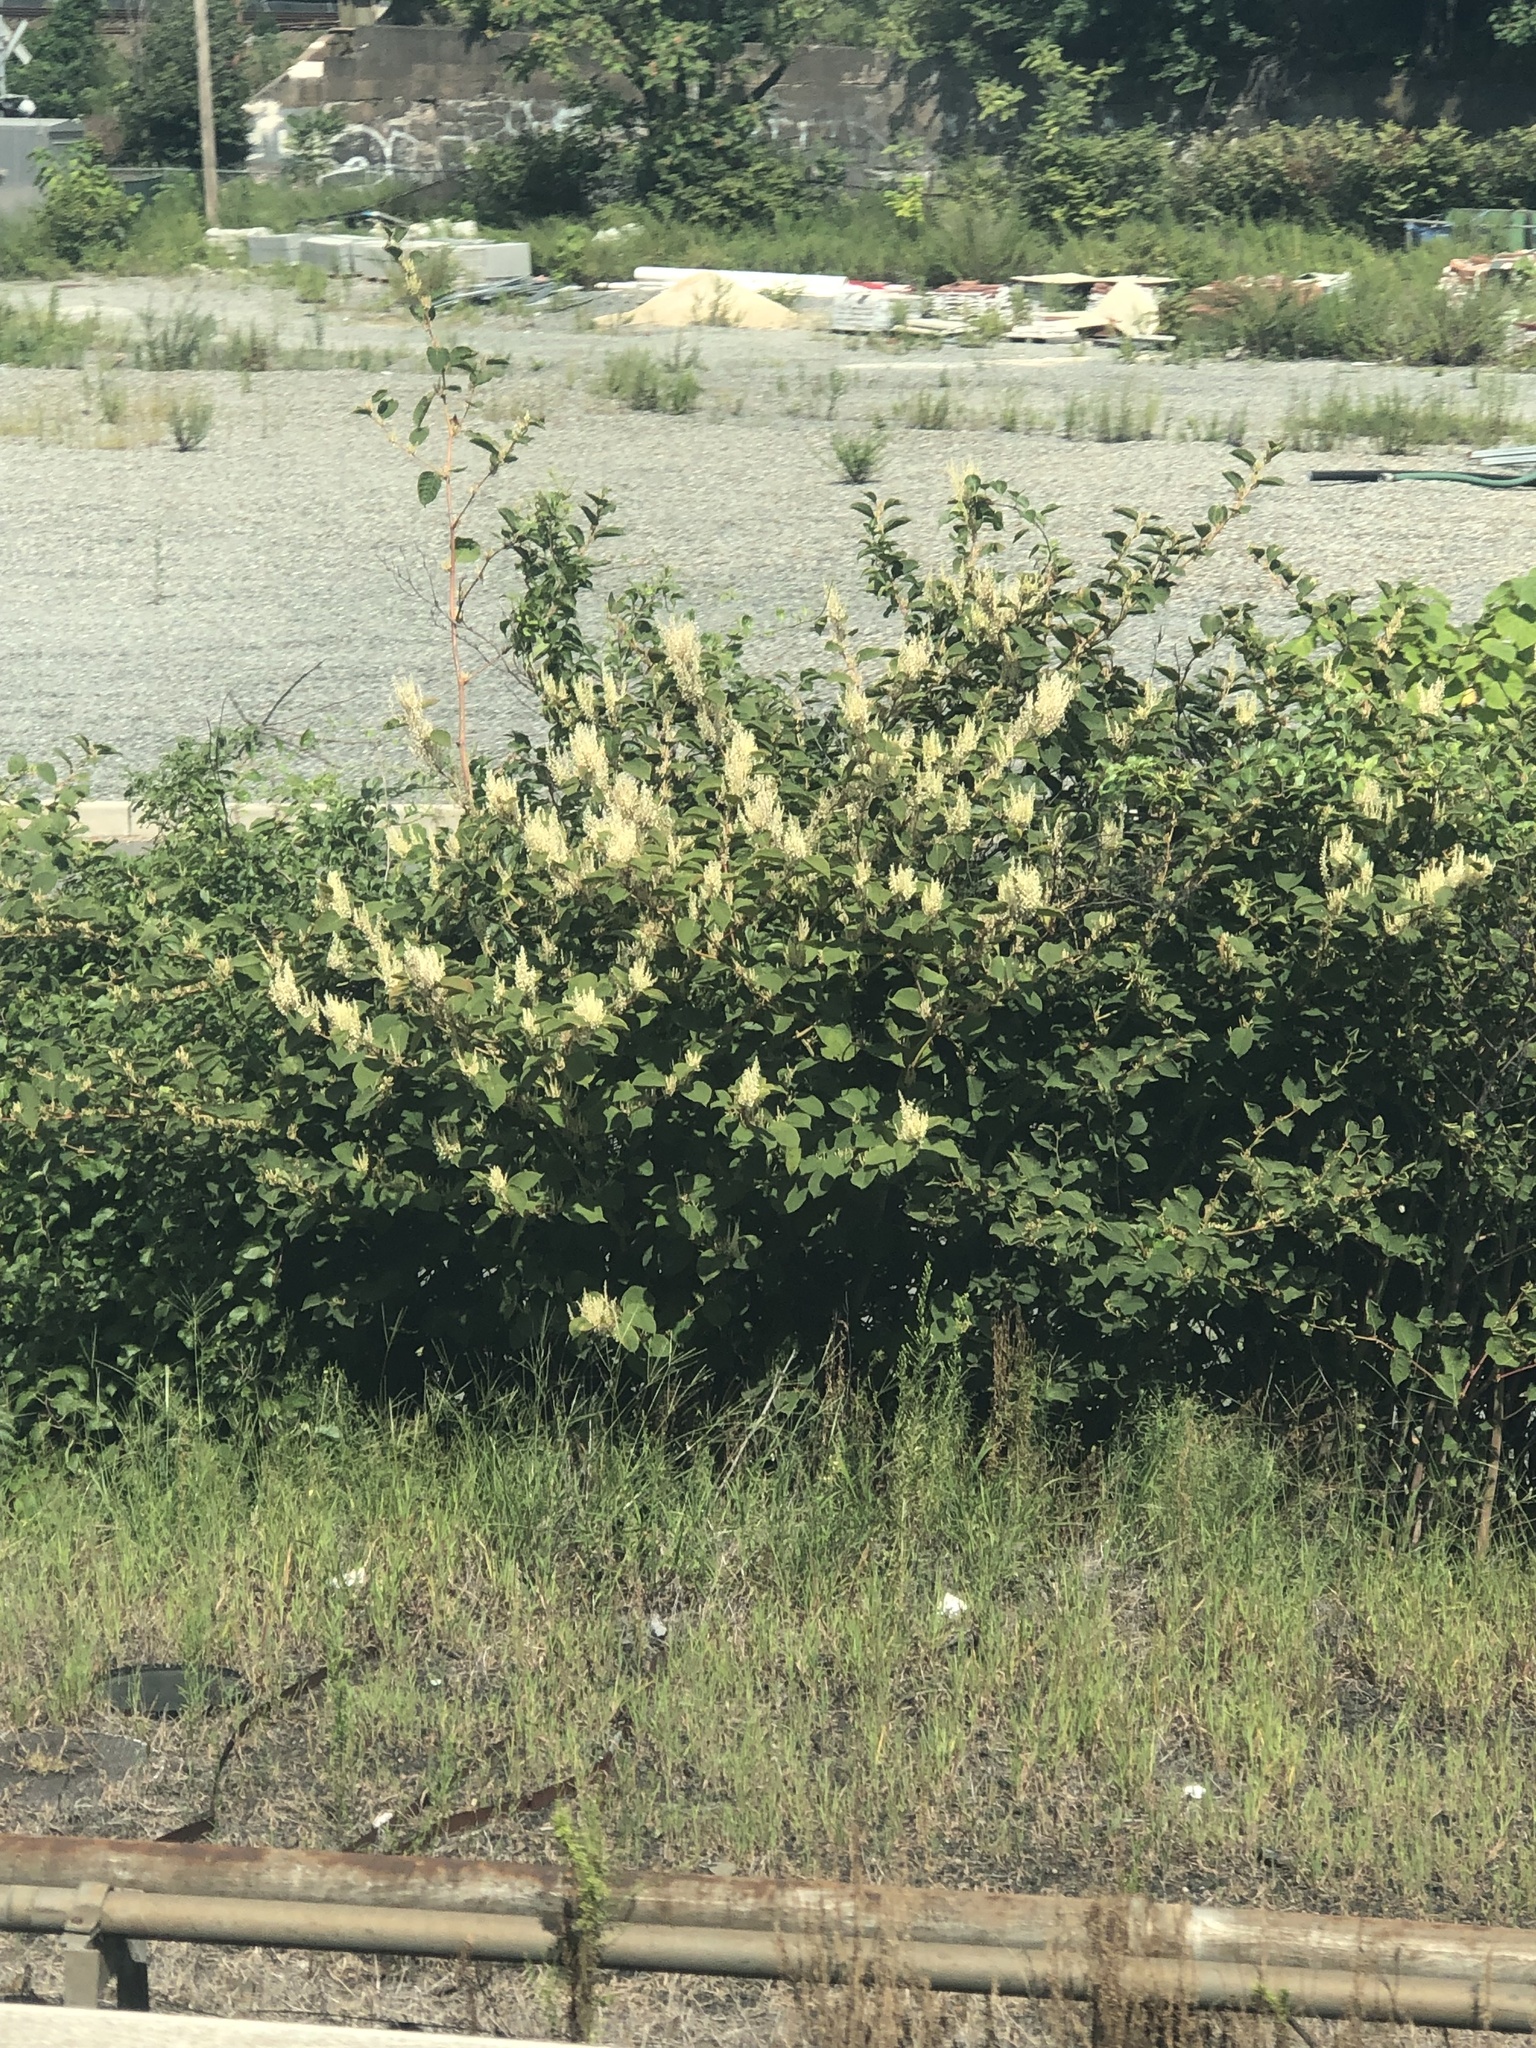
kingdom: Plantae
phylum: Tracheophyta
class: Magnoliopsida
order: Caryophyllales
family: Polygonaceae
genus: Reynoutria
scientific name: Reynoutria japonica
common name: Japanese knotweed
